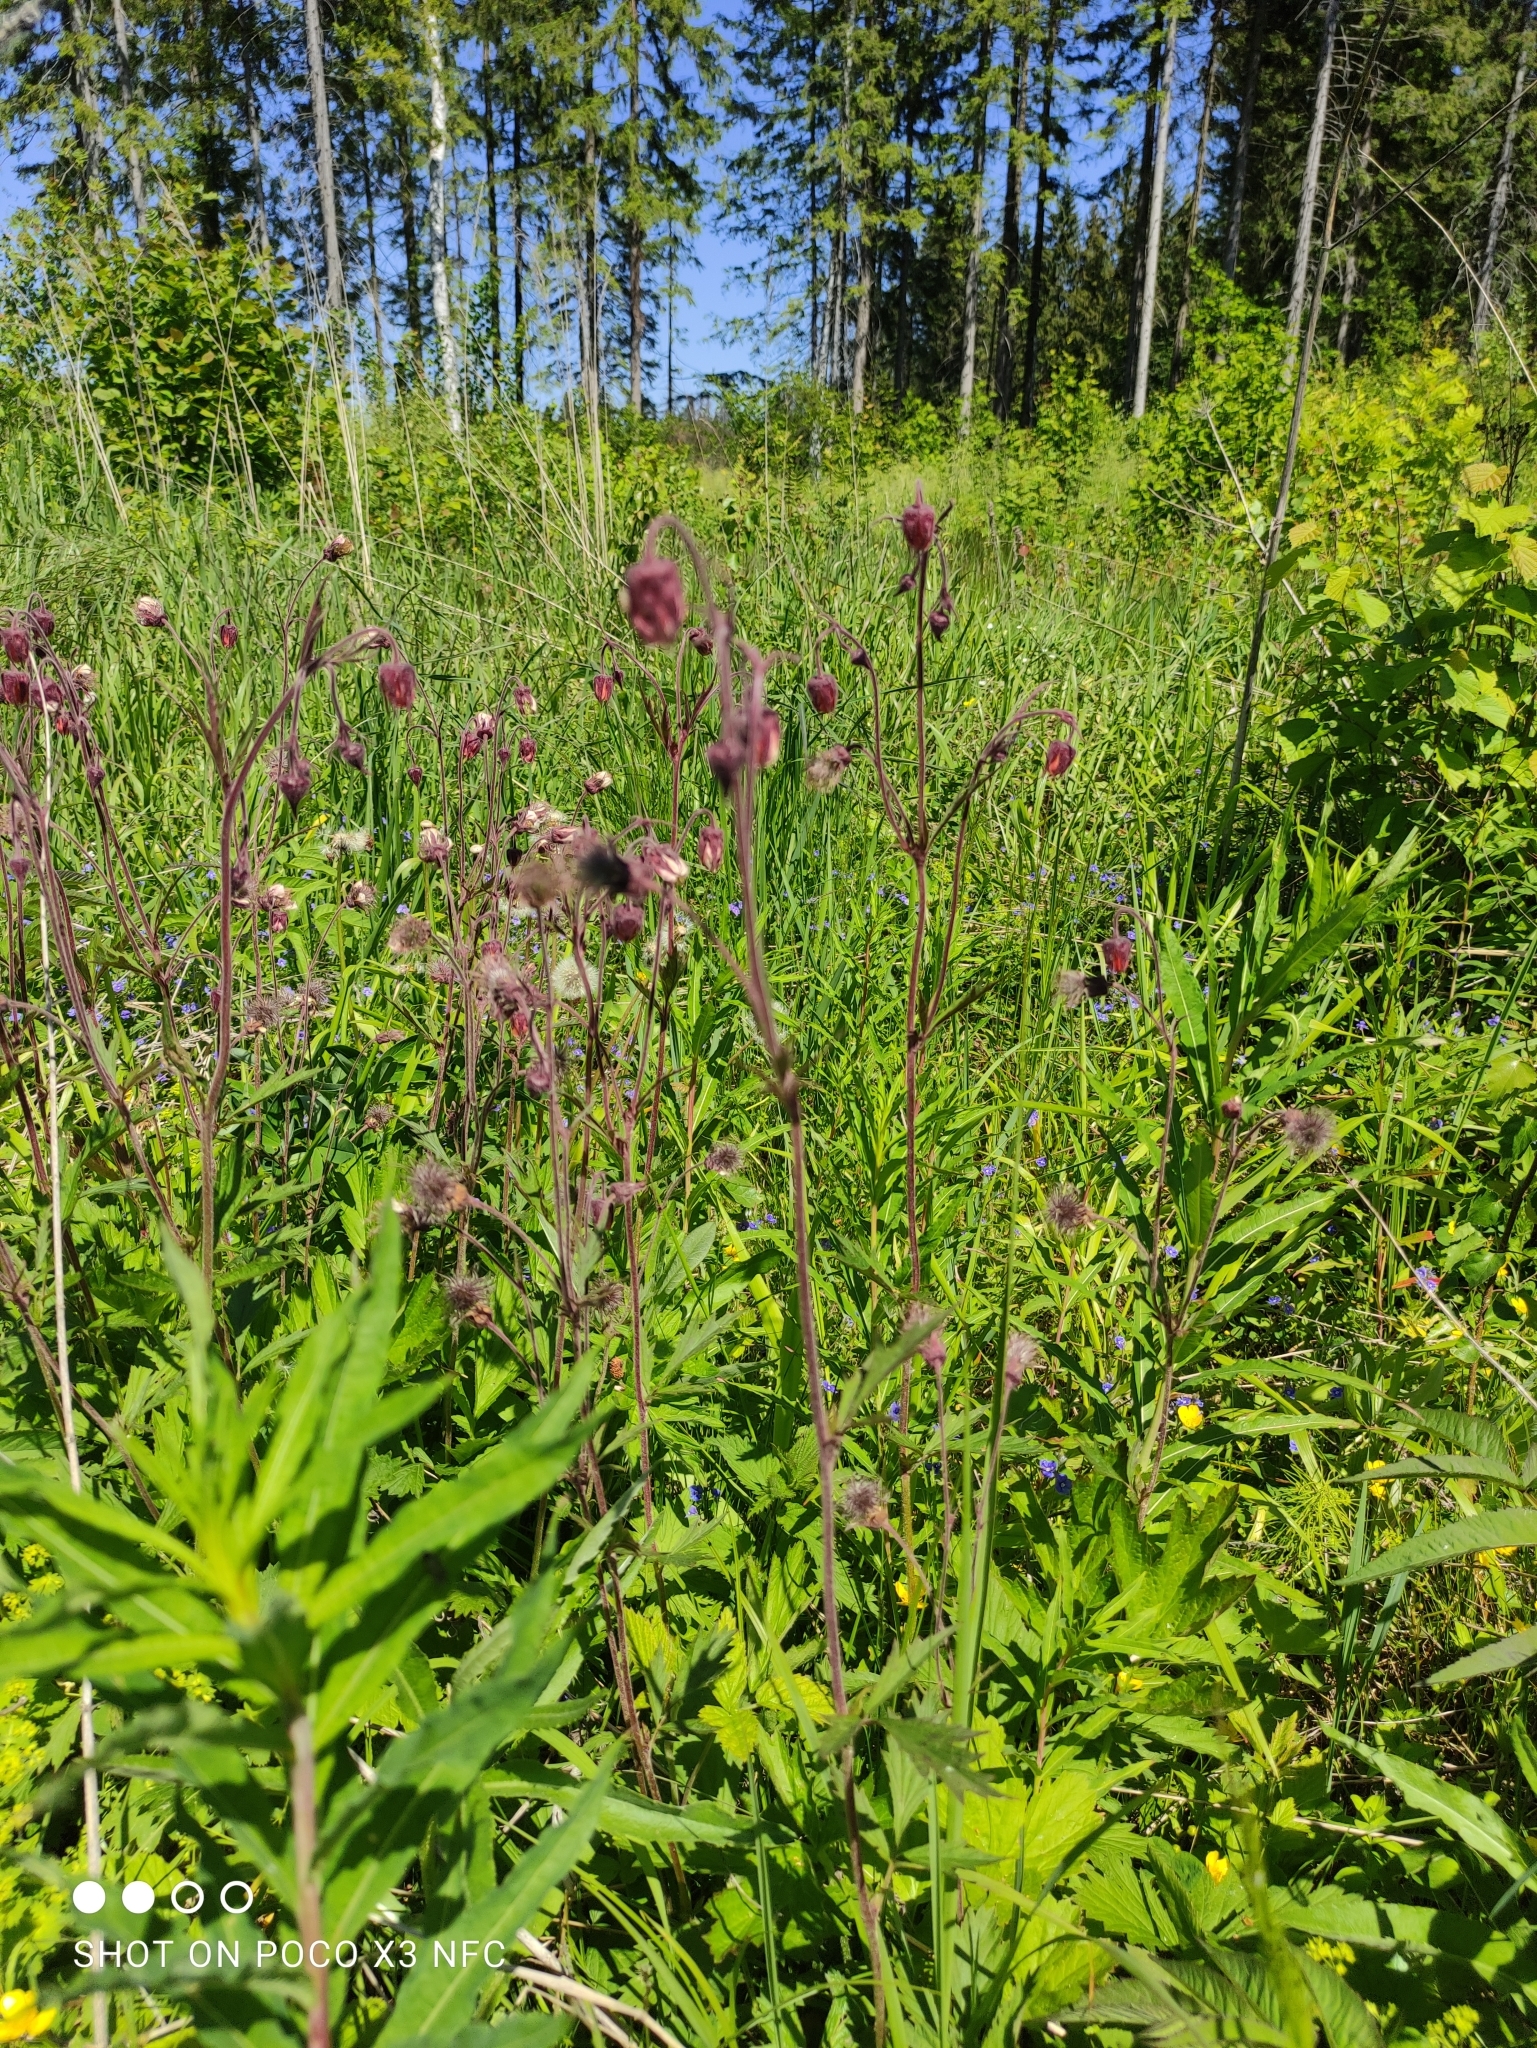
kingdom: Plantae
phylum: Tracheophyta
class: Magnoliopsida
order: Rosales
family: Rosaceae
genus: Geum
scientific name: Geum rivale
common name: Water avens
